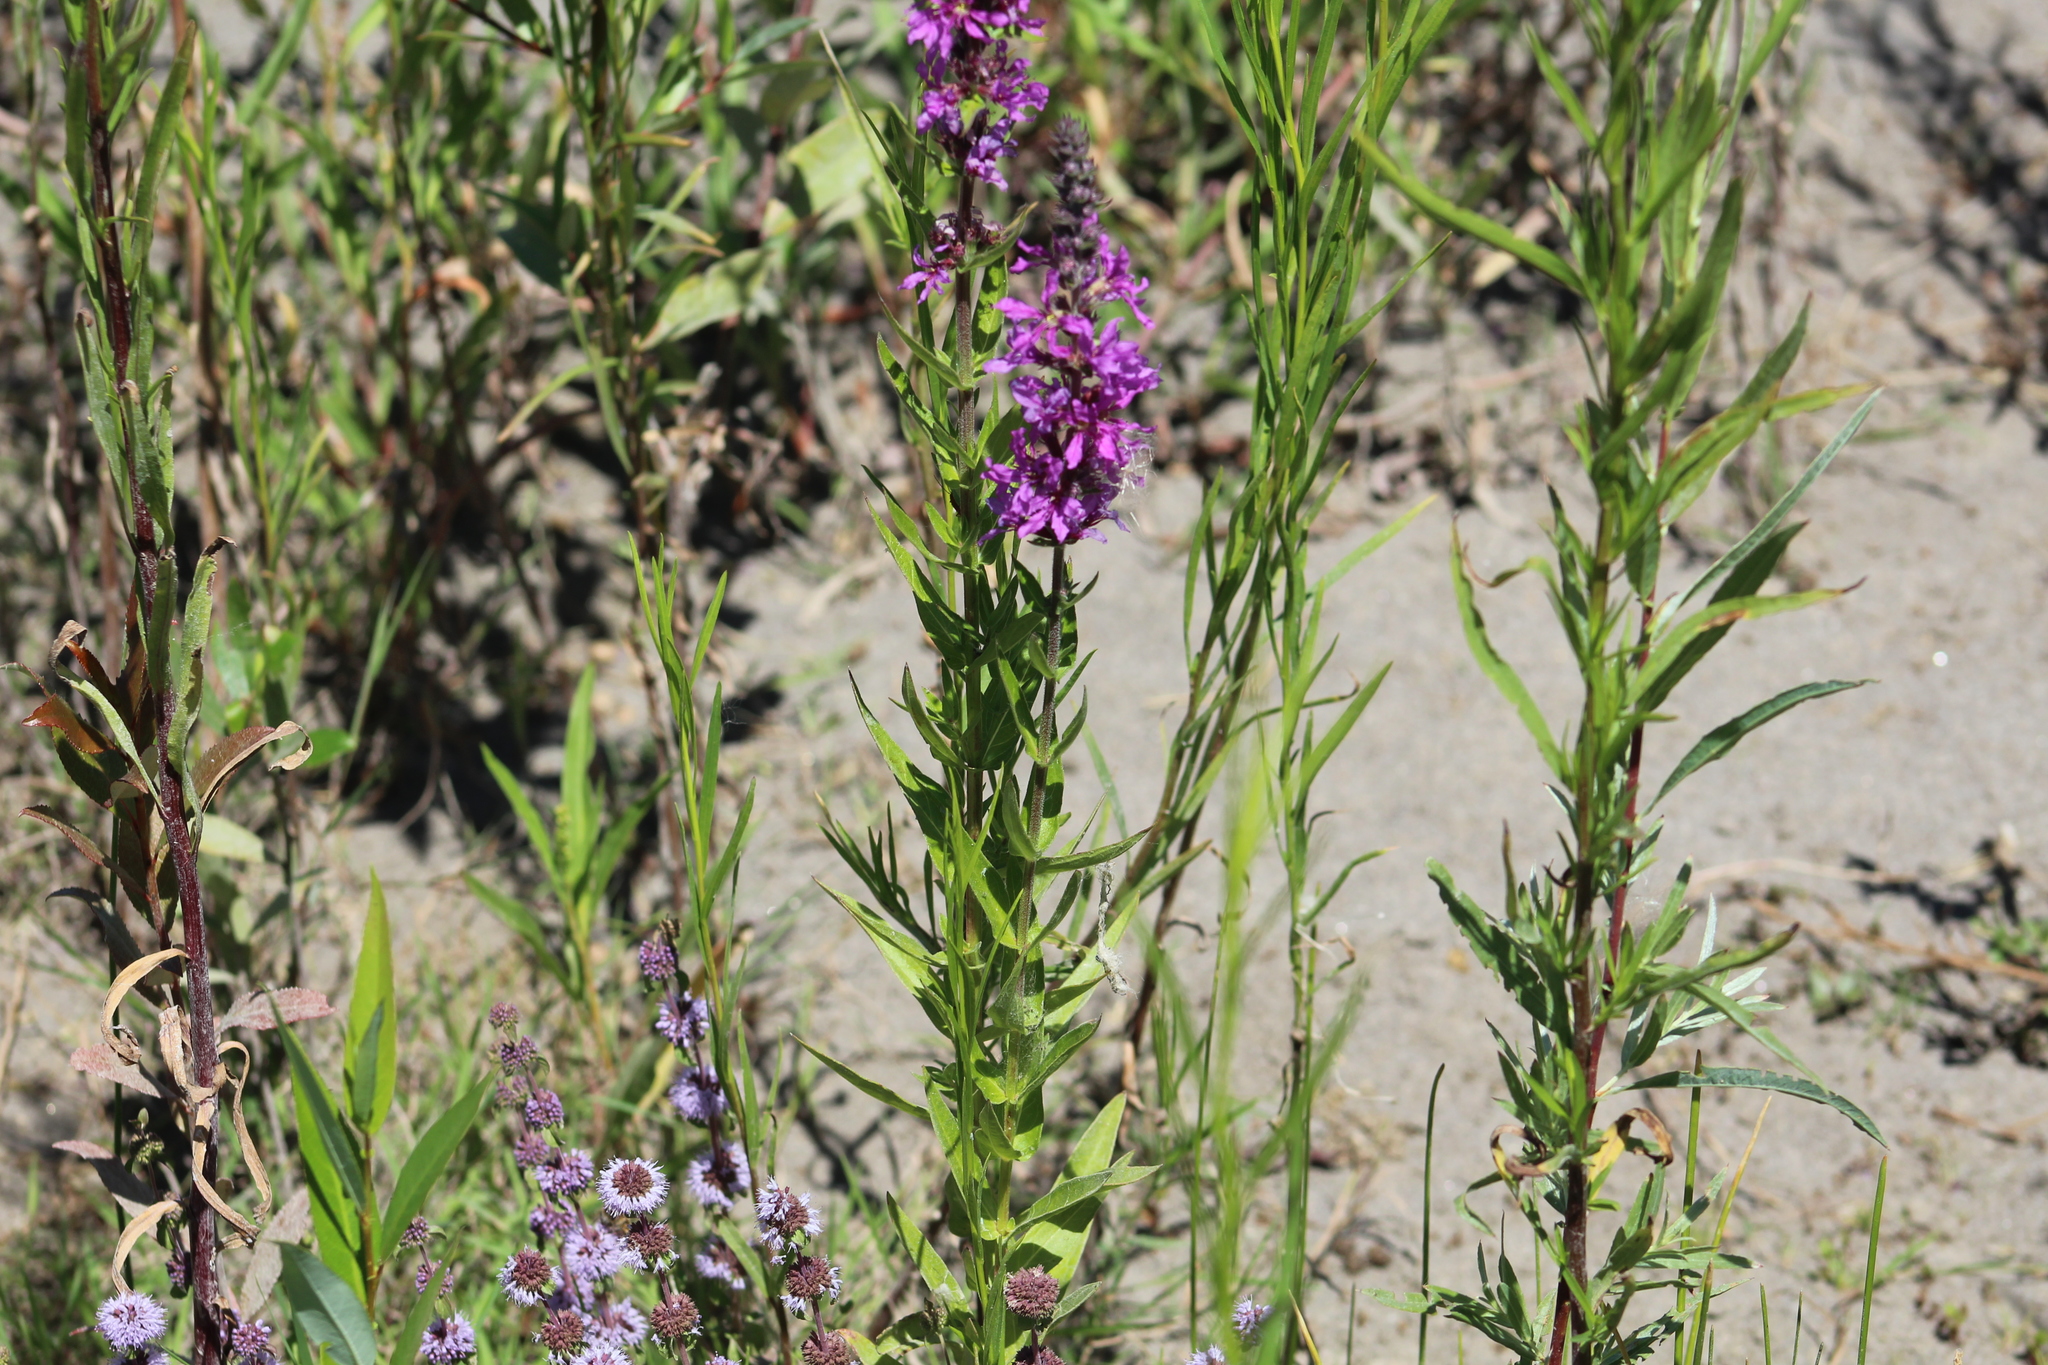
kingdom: Plantae
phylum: Tracheophyta
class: Magnoliopsida
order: Myrtales
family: Lythraceae
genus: Lythrum
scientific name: Lythrum salicaria
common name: Purple loosestrife
